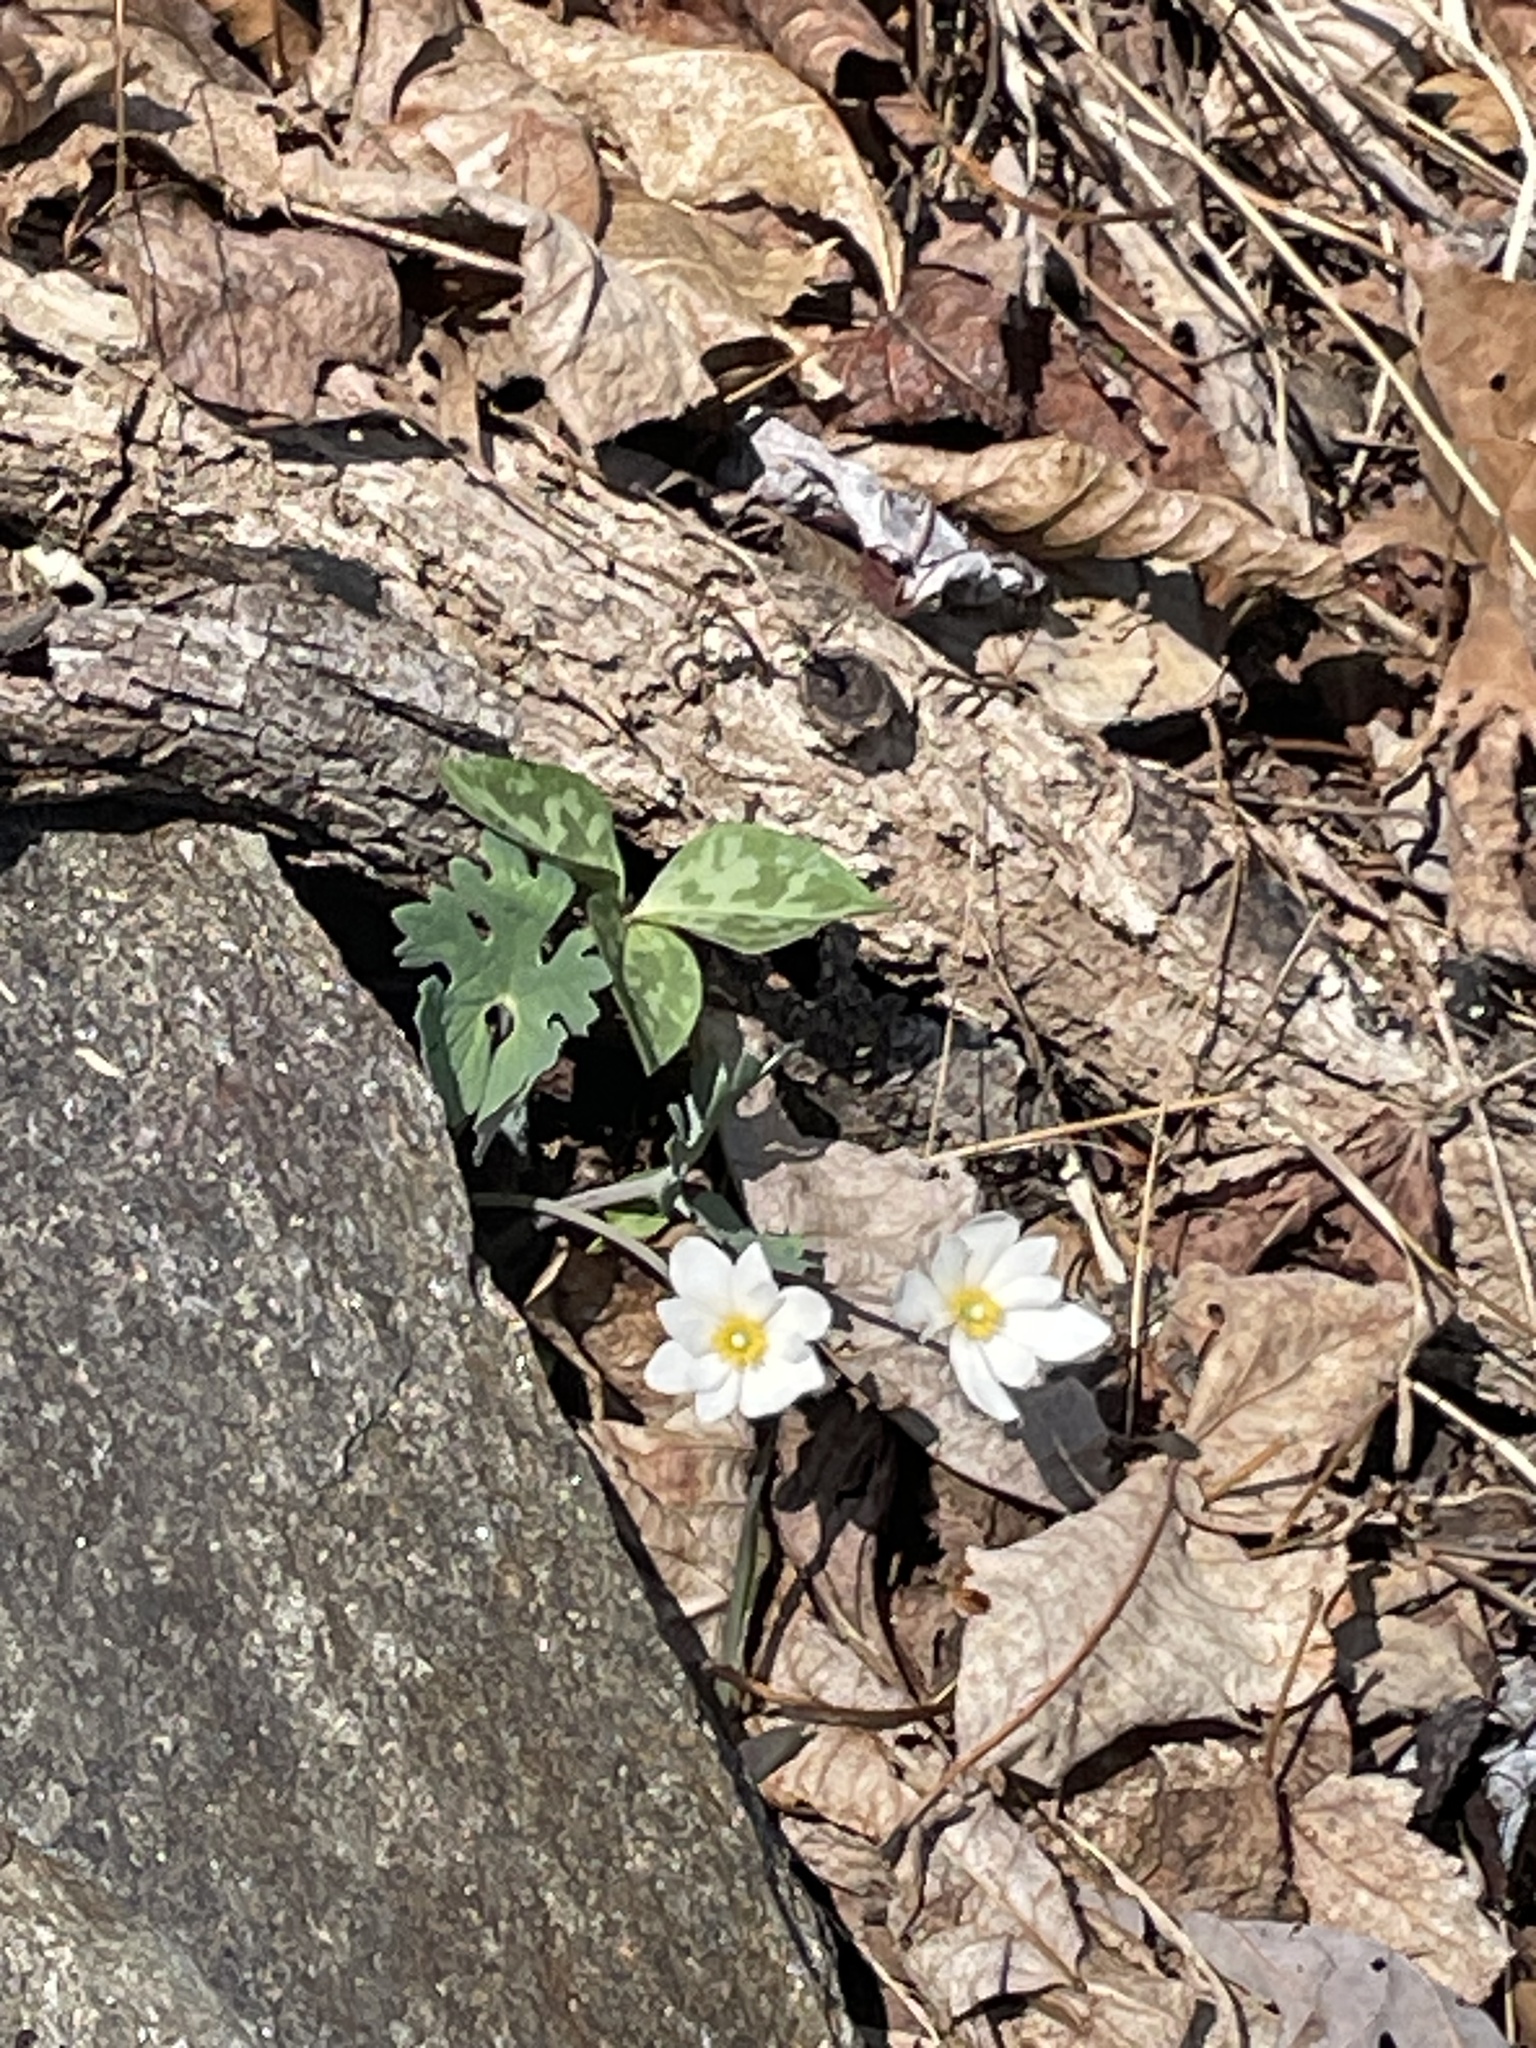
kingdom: Plantae
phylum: Tracheophyta
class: Magnoliopsida
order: Ranunculales
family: Papaveraceae
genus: Sanguinaria
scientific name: Sanguinaria canadensis
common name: Bloodroot
